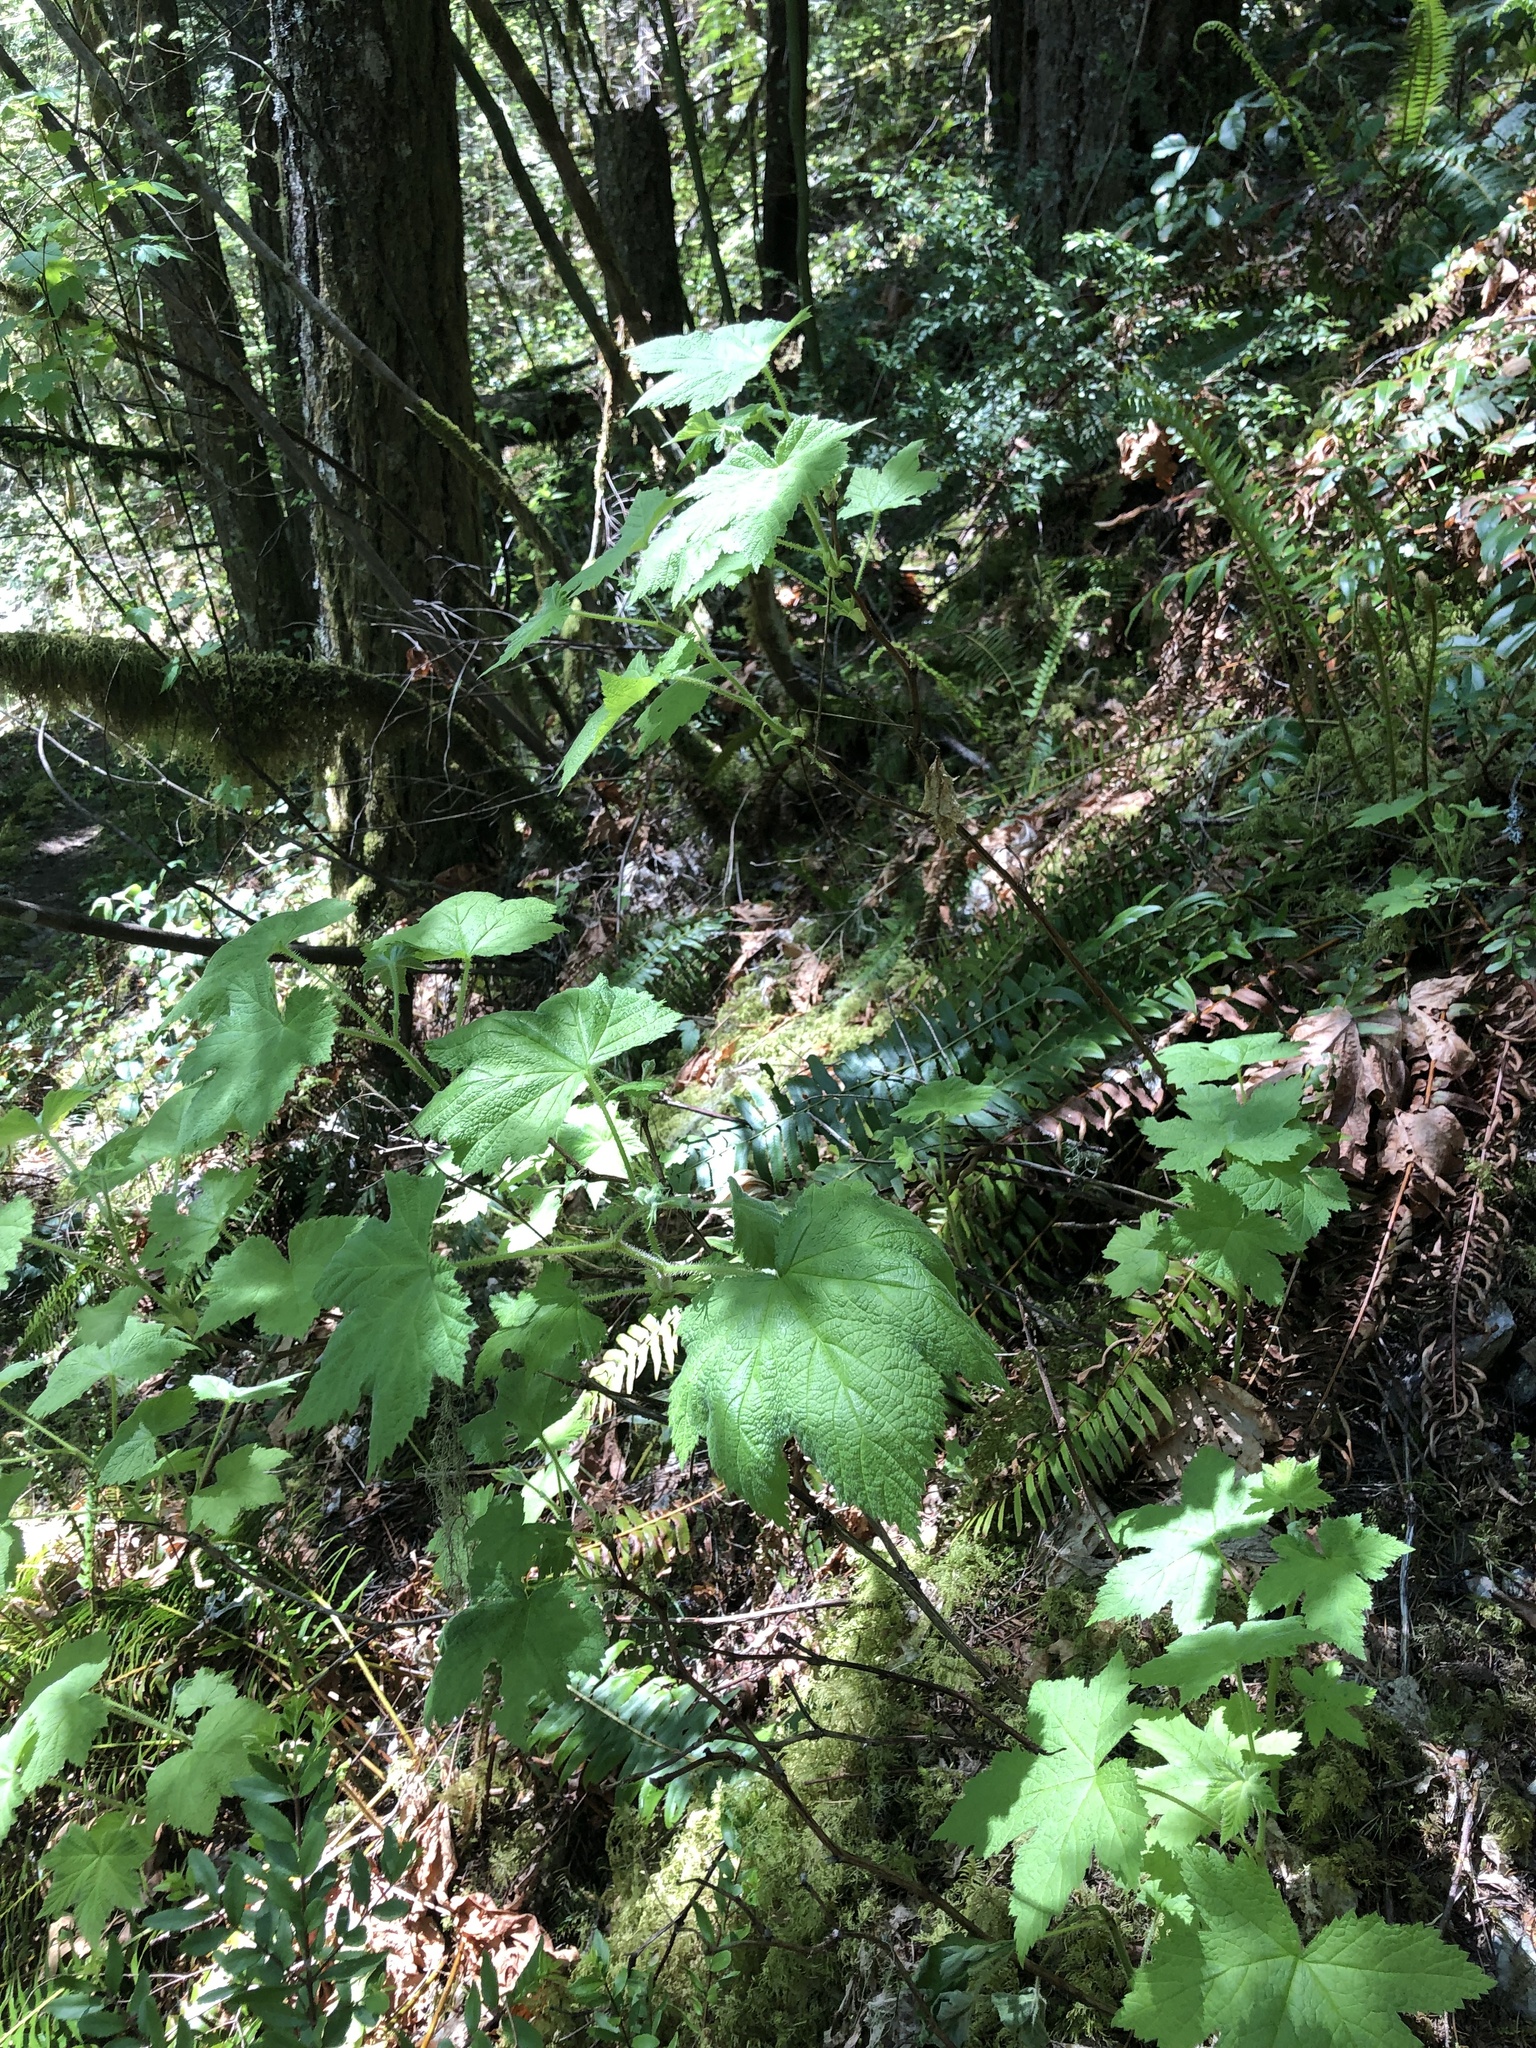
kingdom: Plantae
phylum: Tracheophyta
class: Magnoliopsida
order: Rosales
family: Rosaceae
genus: Rubus
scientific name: Rubus parviflorus
